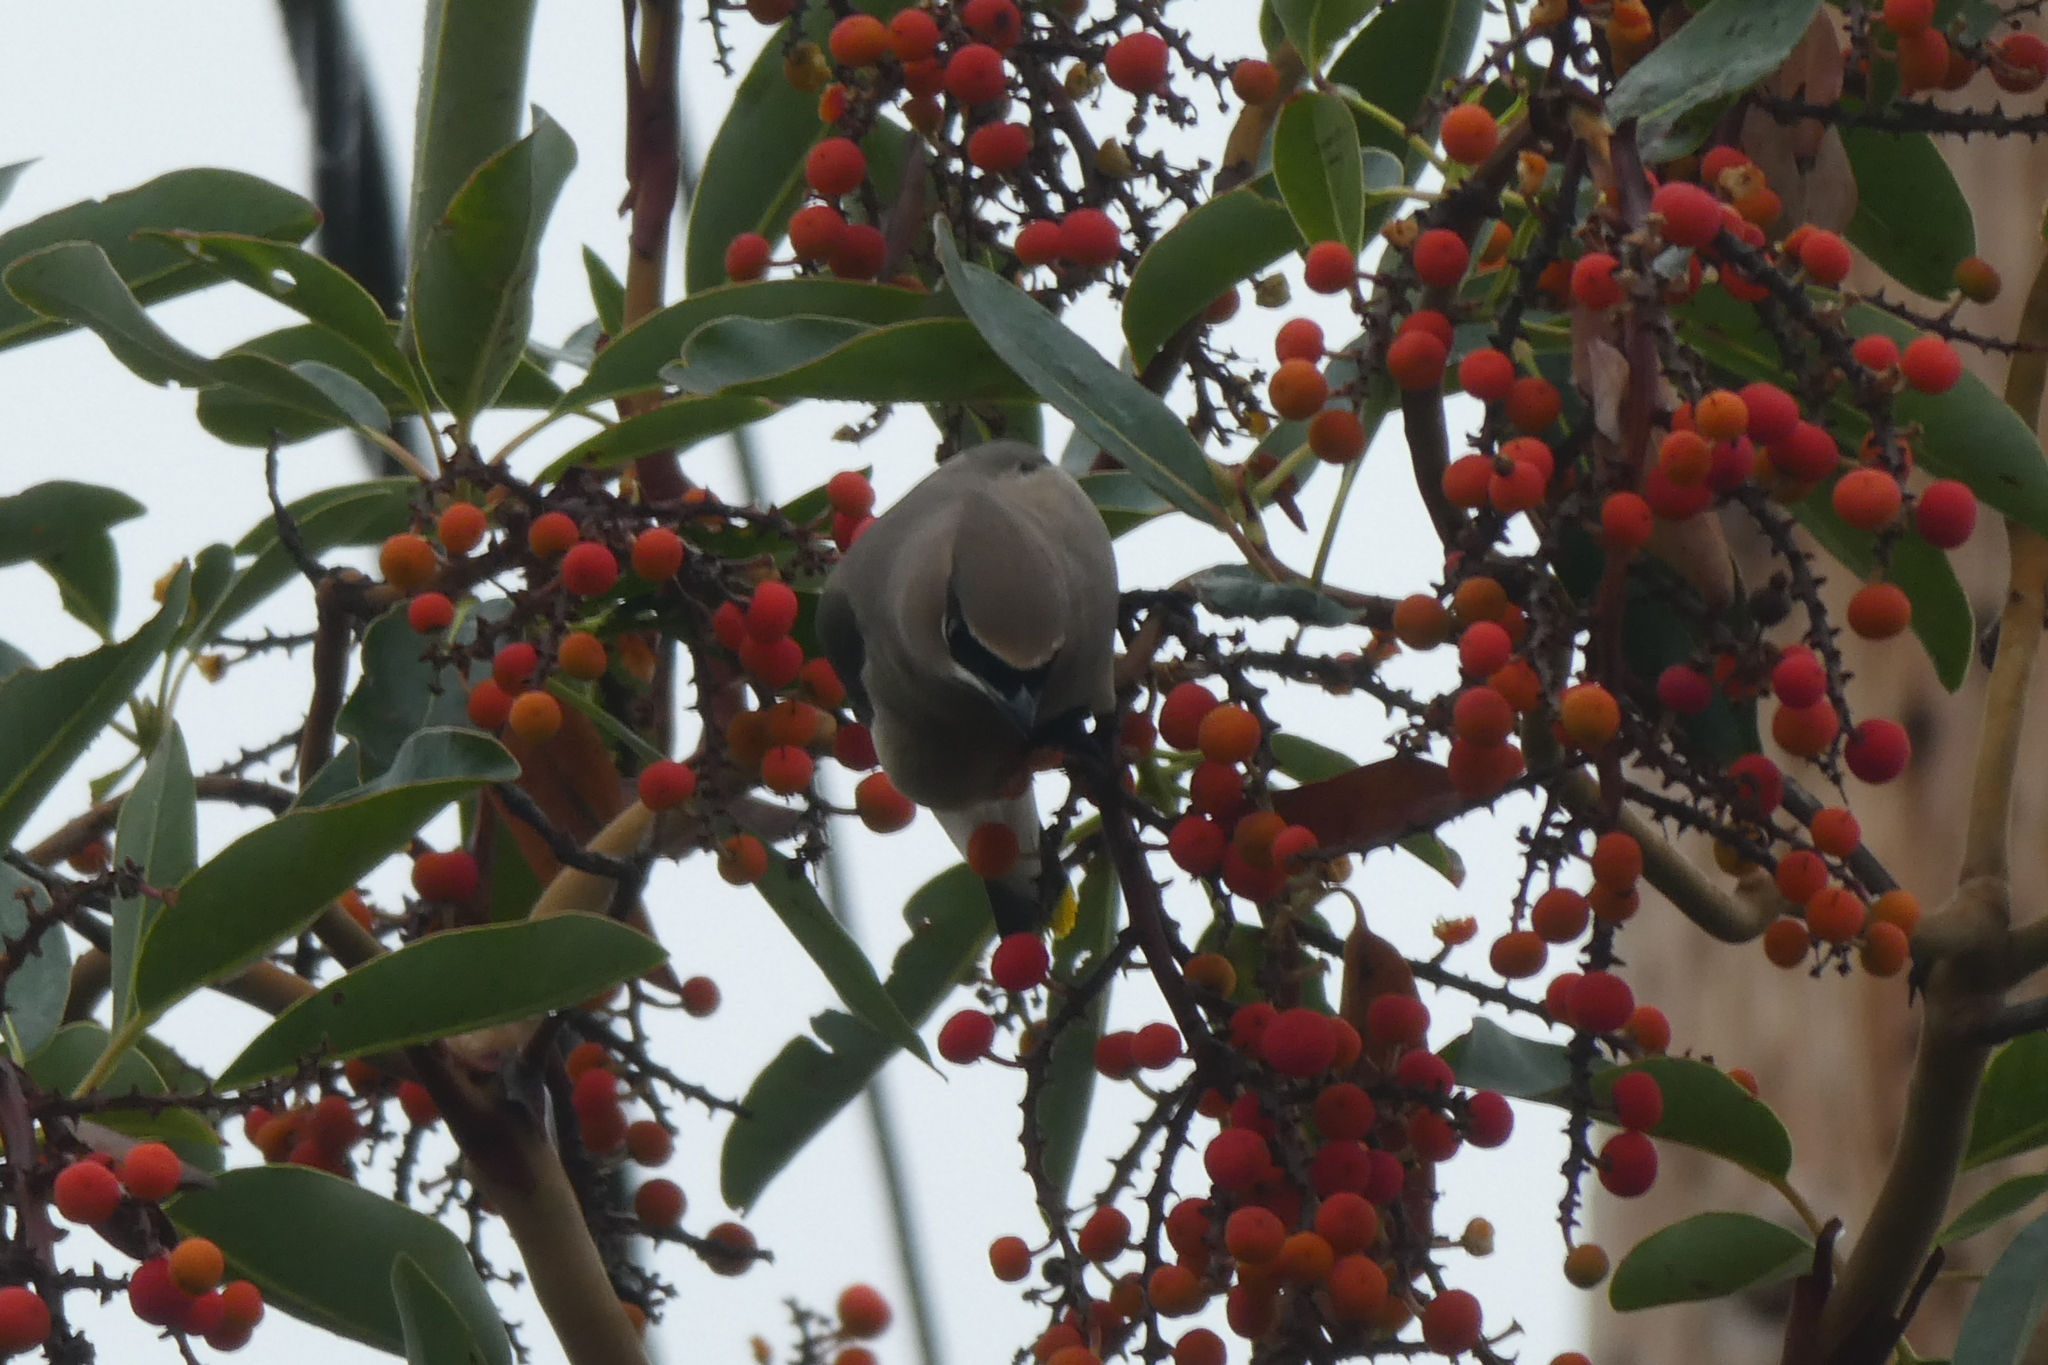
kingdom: Animalia
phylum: Chordata
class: Aves
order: Passeriformes
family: Bombycillidae
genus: Bombycilla
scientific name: Bombycilla cedrorum
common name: Cedar waxwing
